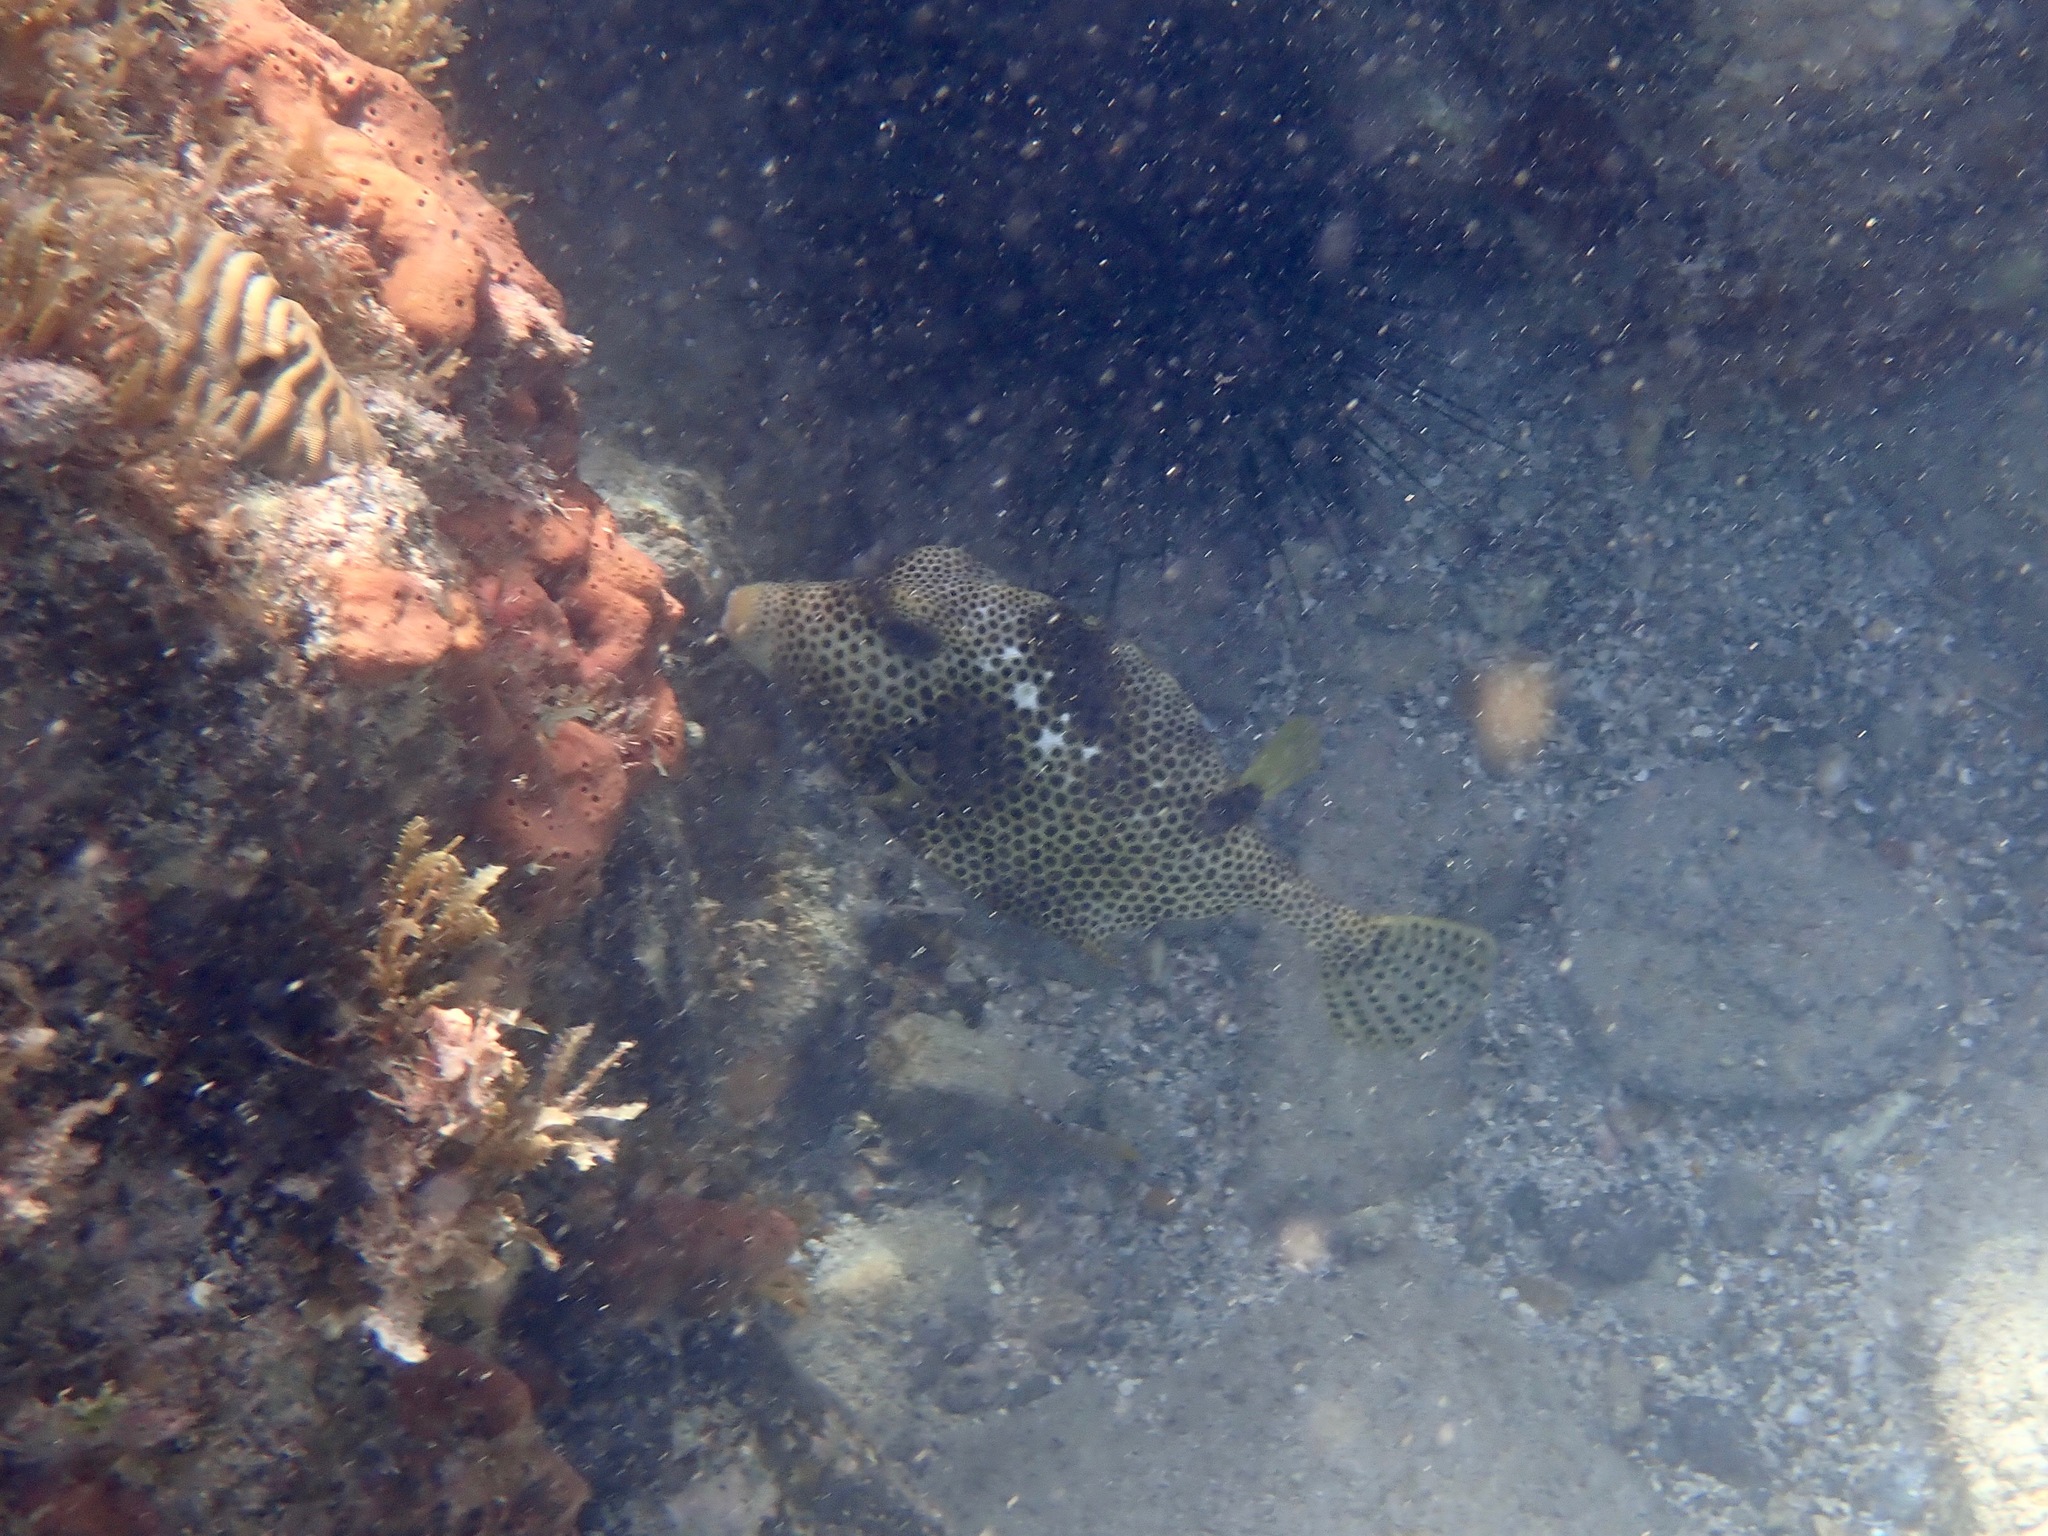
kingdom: Animalia
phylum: Chordata
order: Tetraodontiformes
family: Ostraciidae
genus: Lactophrys
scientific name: Lactophrys bicaudalis
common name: Spotted trunkfish
